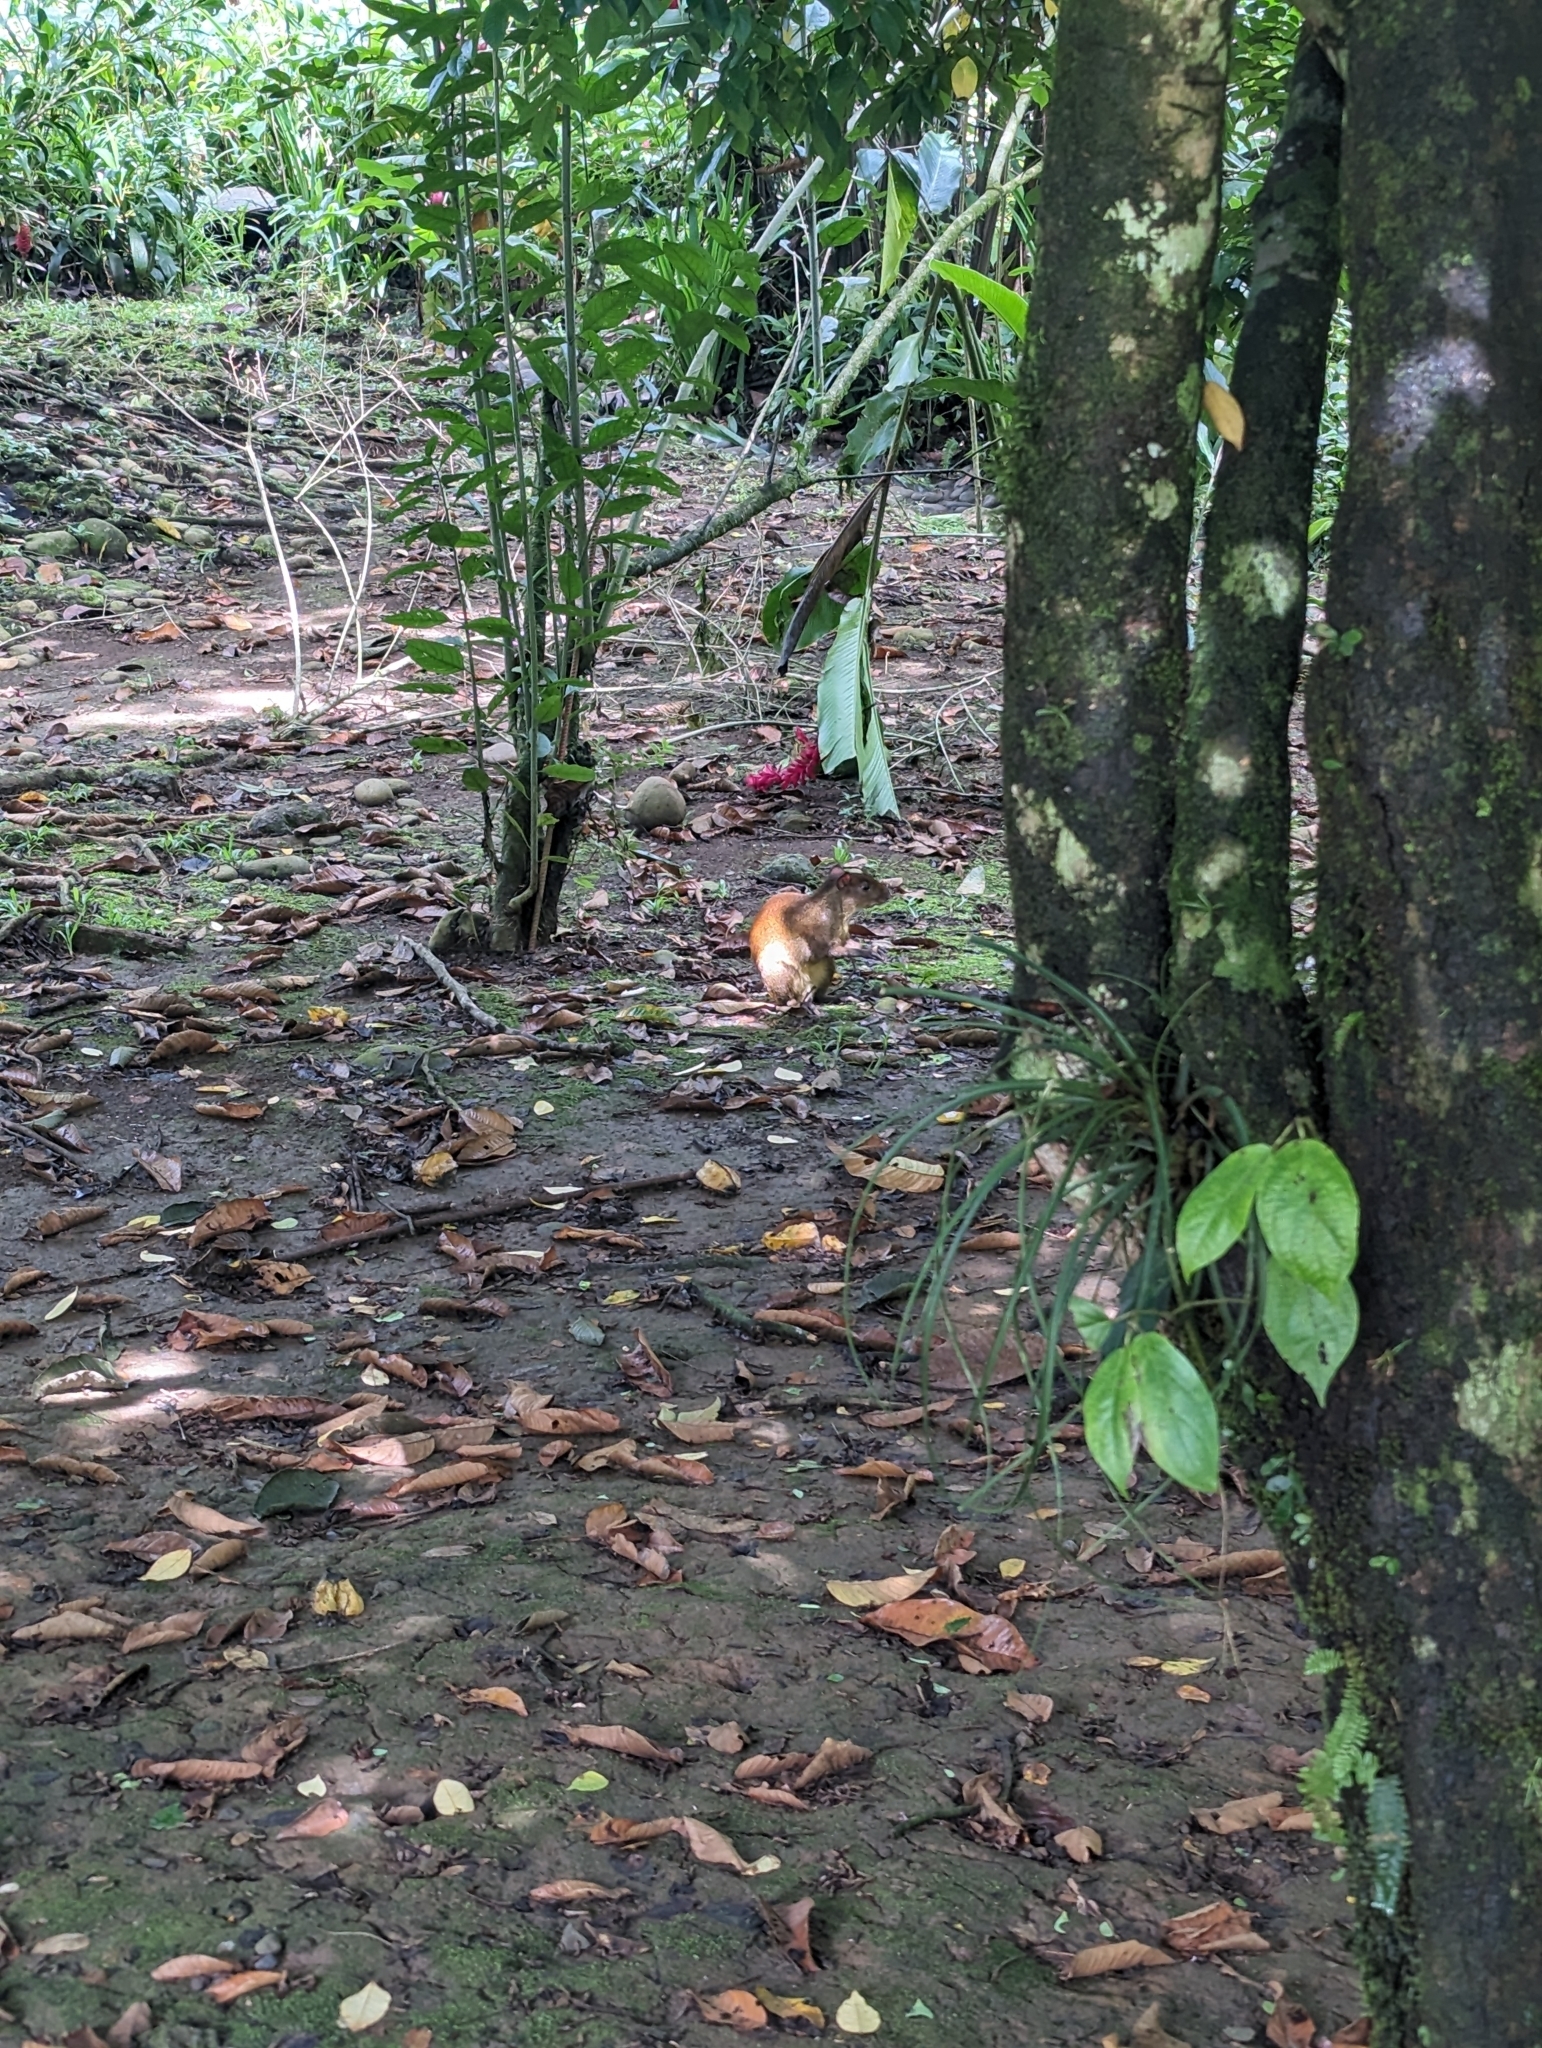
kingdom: Animalia
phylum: Chordata
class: Mammalia
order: Rodentia
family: Dasyproctidae
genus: Dasyprocta
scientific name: Dasyprocta punctata
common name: Central american agouti
